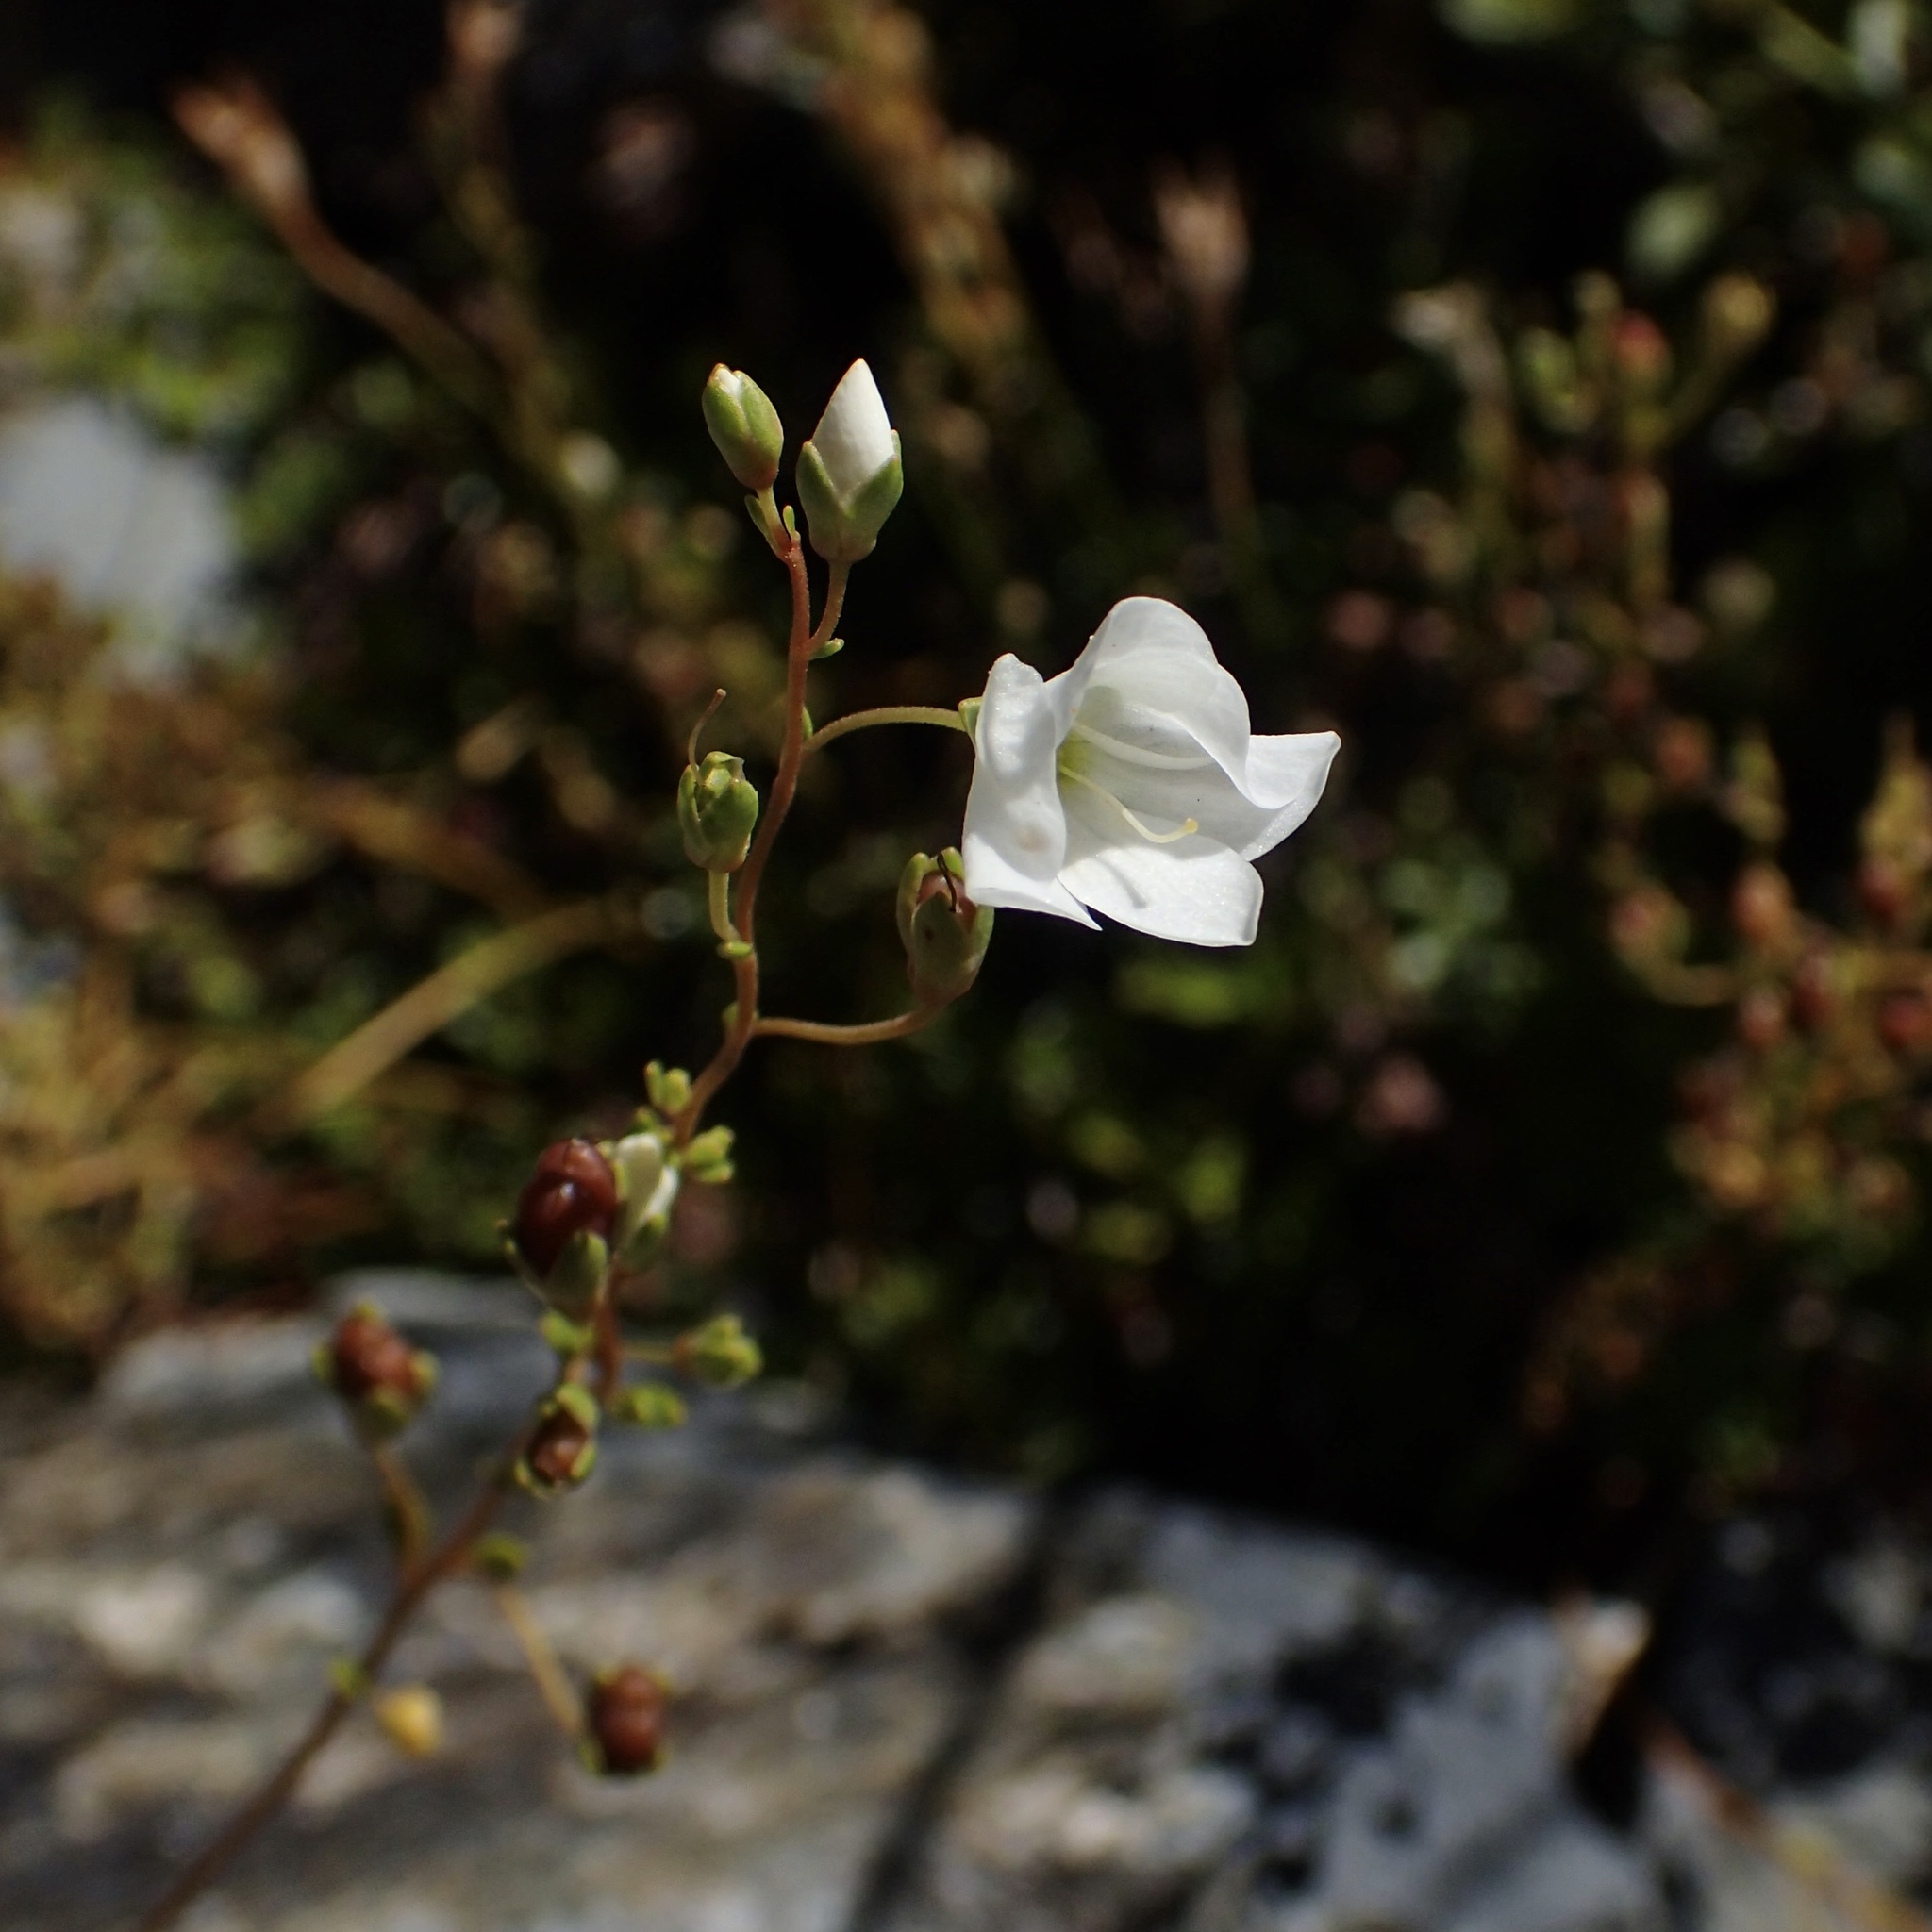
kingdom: Plantae
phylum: Tracheophyta
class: Magnoliopsida
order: Lamiales
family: Plantaginaceae
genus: Veronica
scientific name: Veronica lyallii
